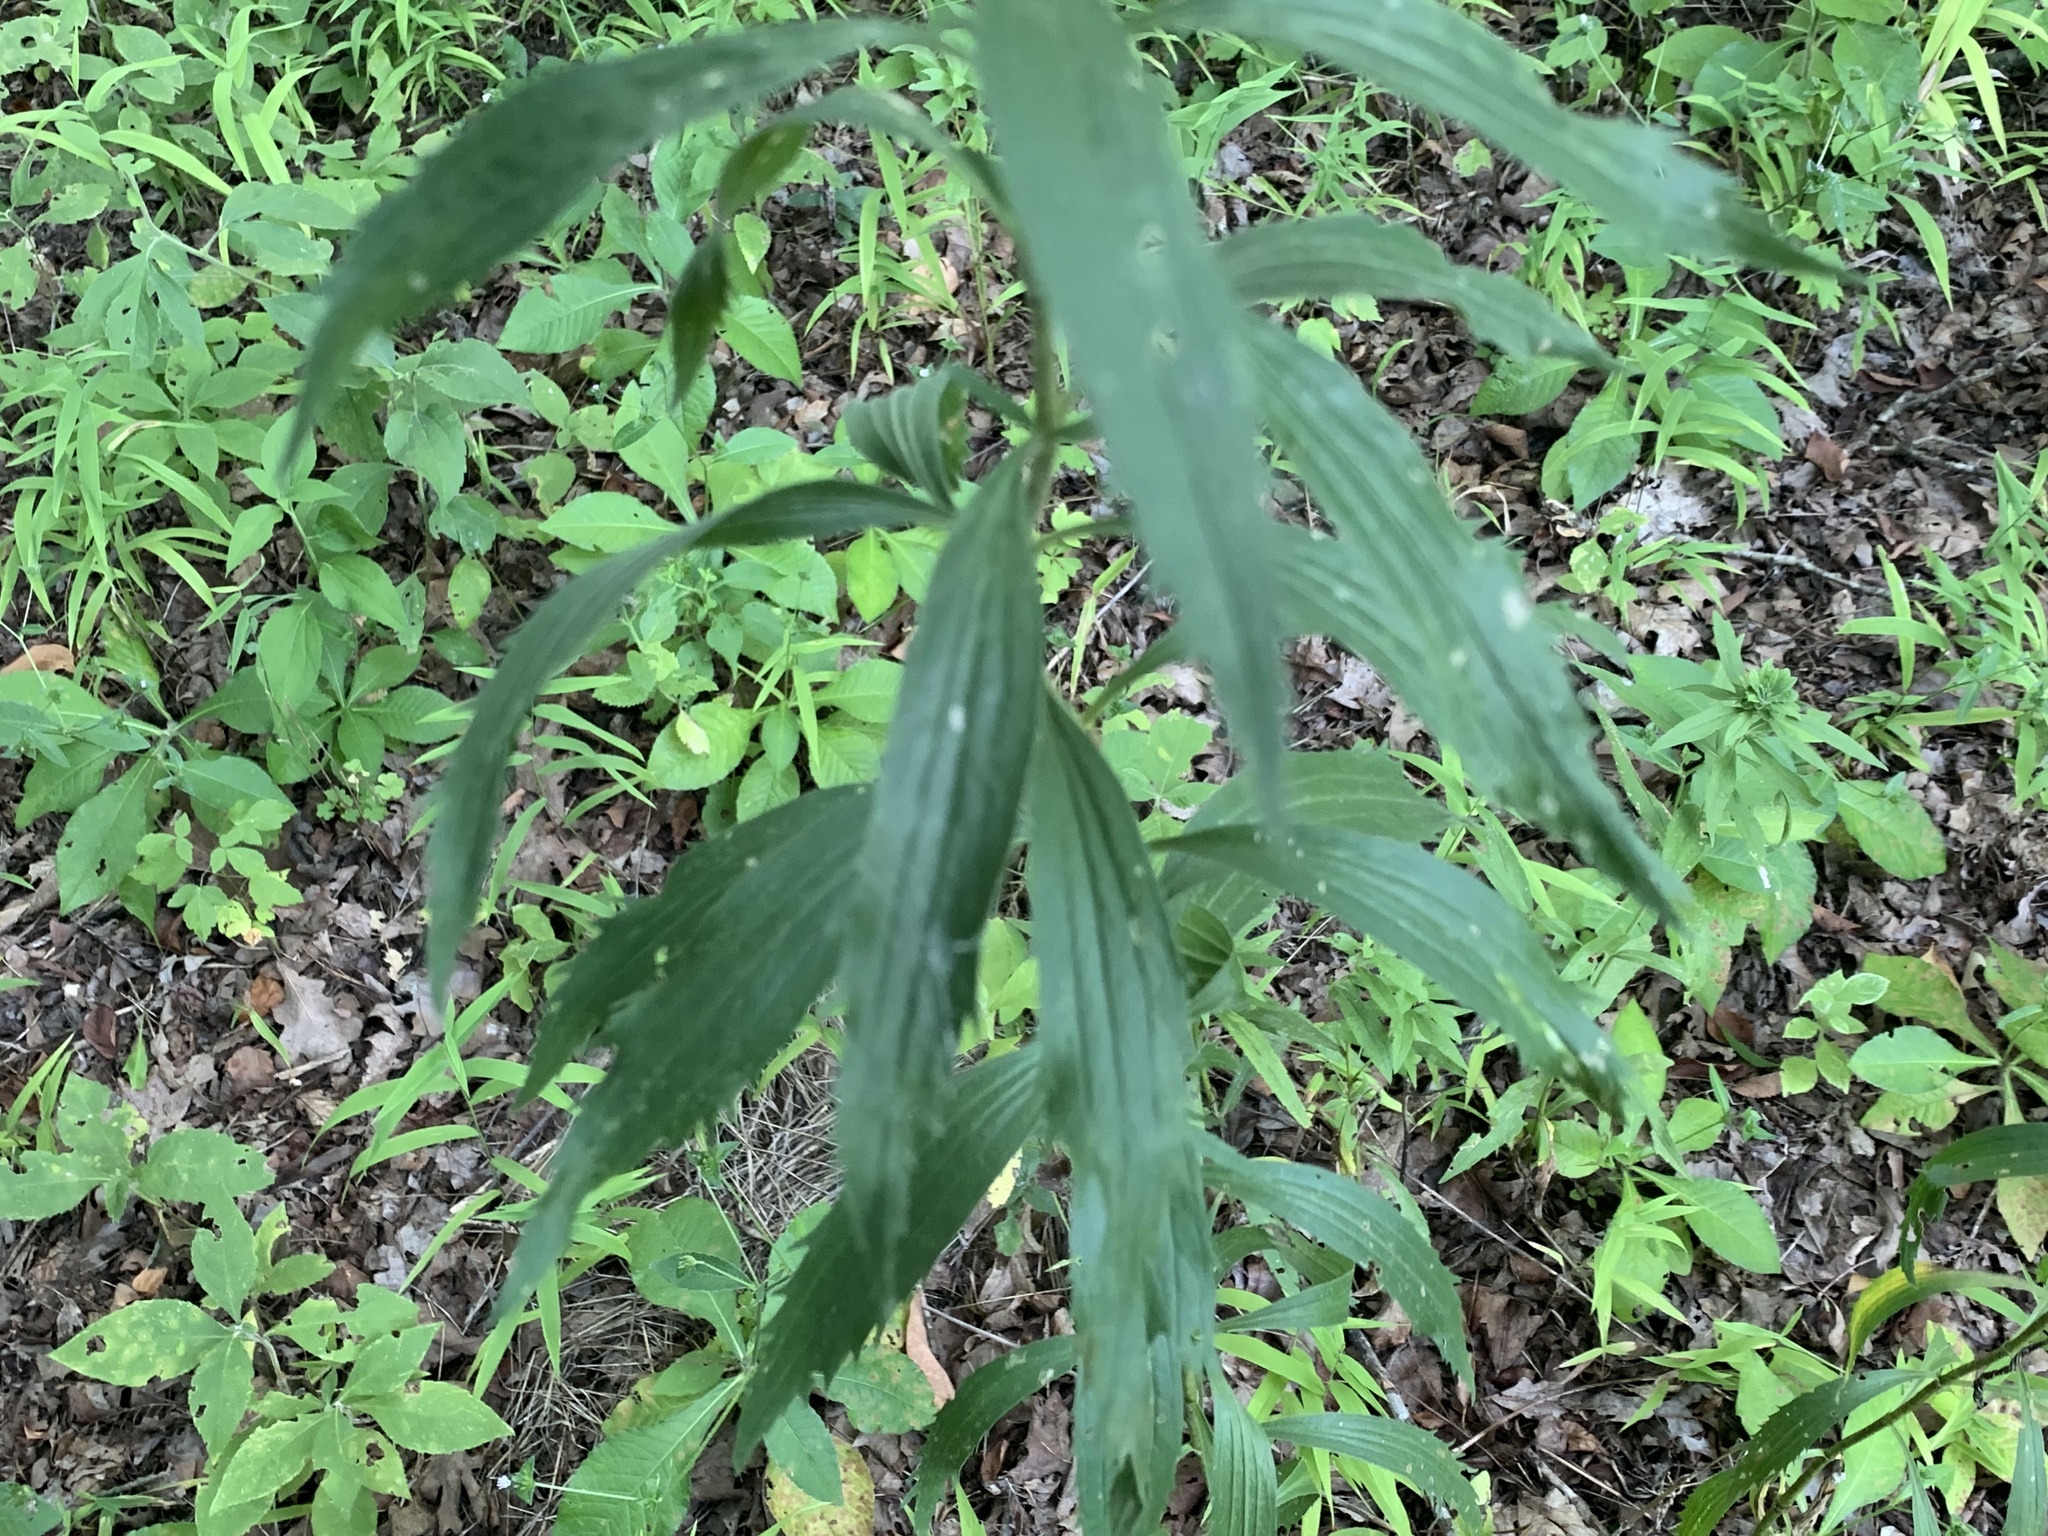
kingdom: Plantae
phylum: Tracheophyta
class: Magnoliopsida
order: Asterales
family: Asteraceae
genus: Eupatorium
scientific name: Eupatorium altissimum
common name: Tall thoroughwort
